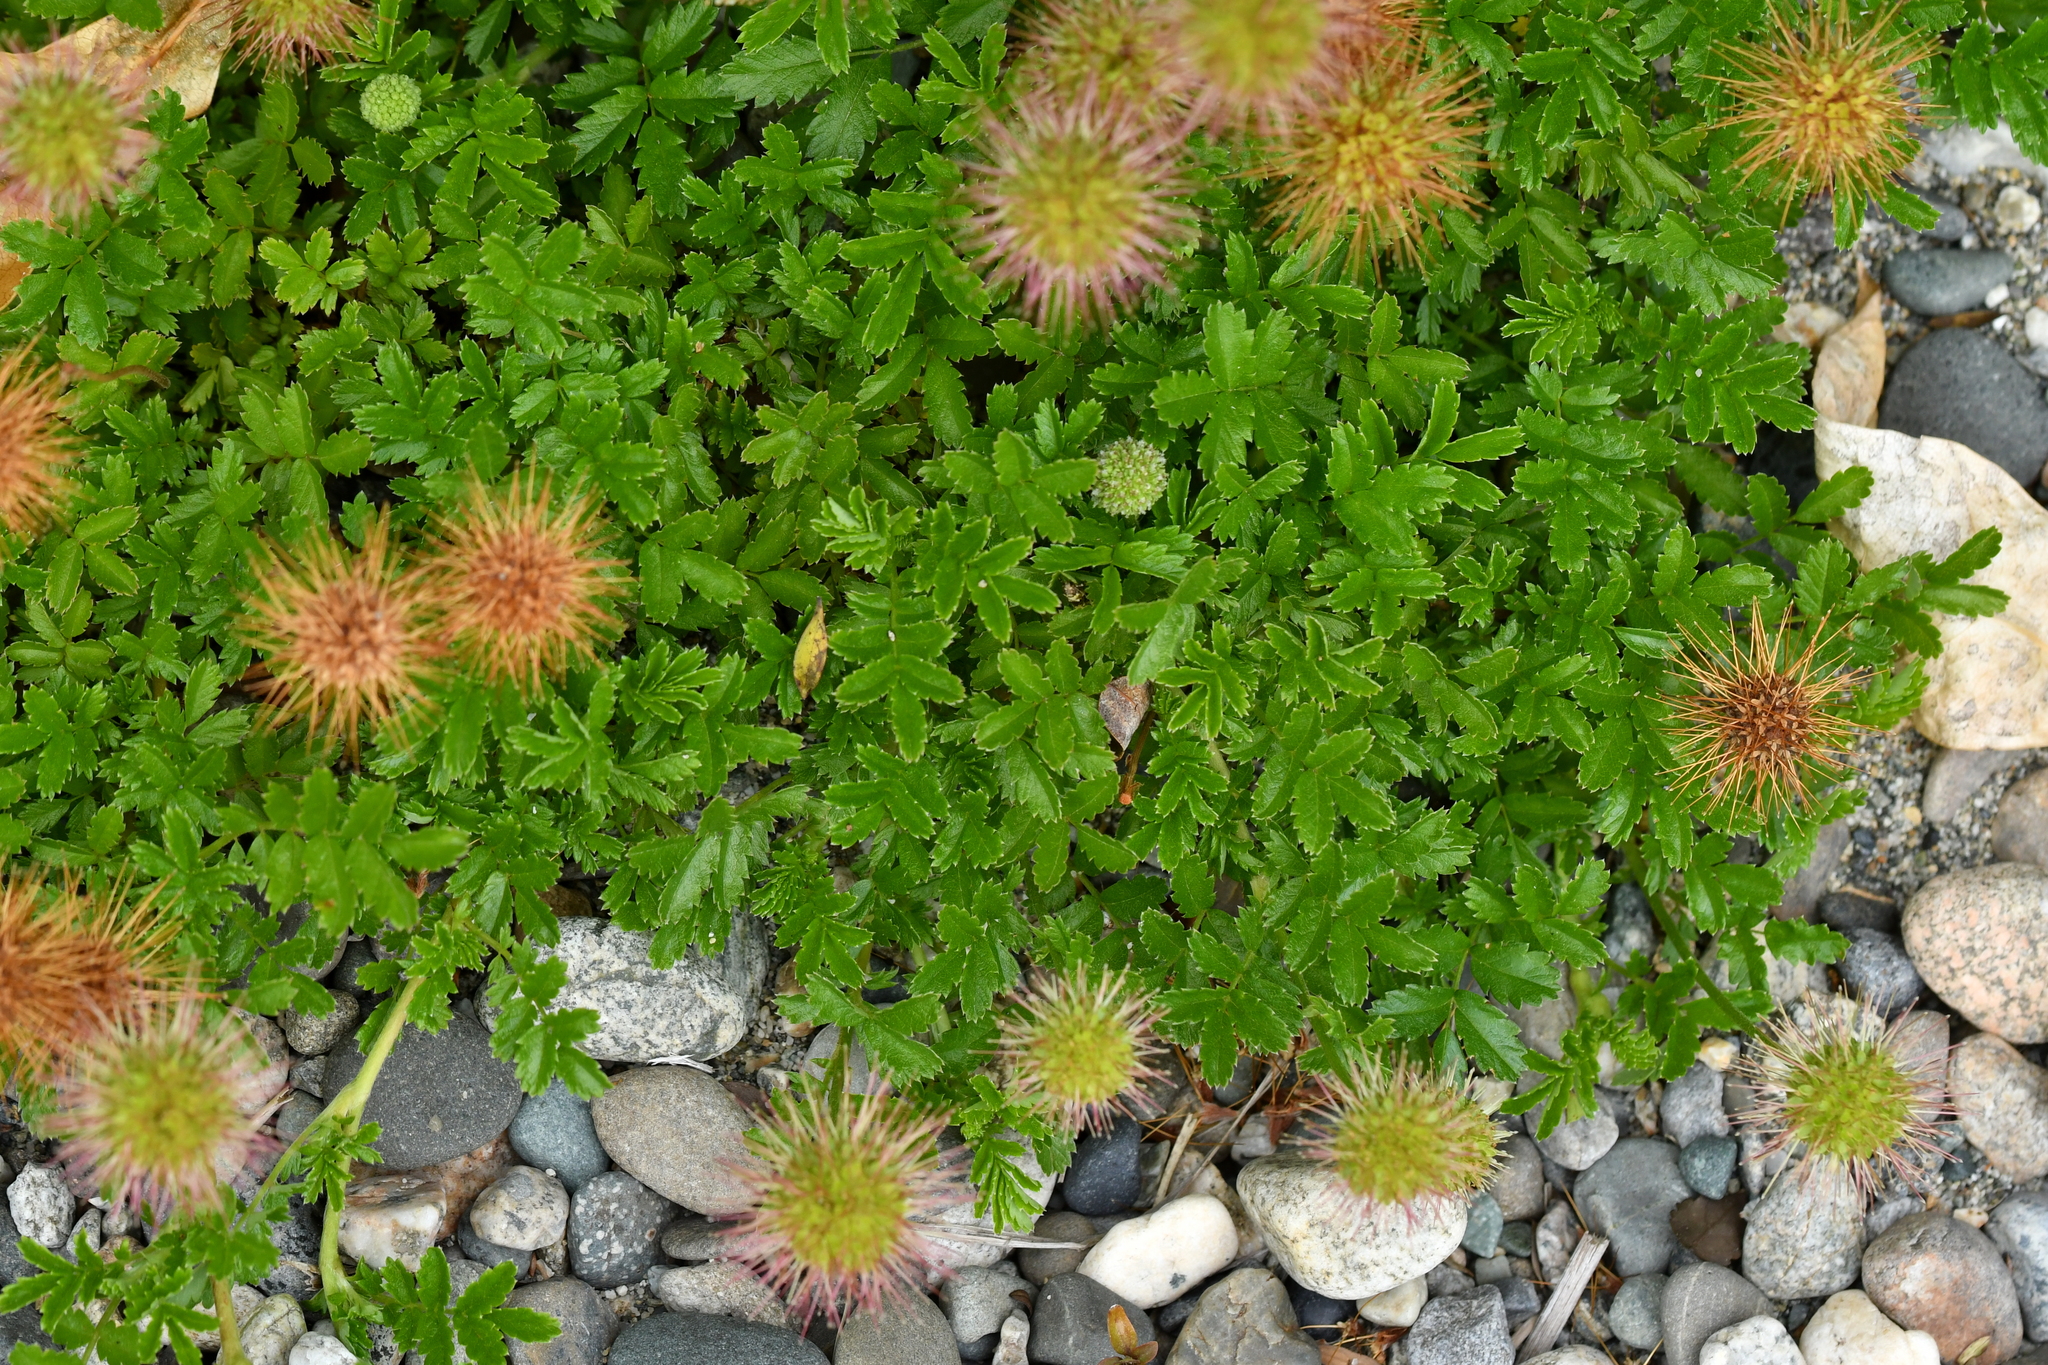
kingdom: Plantae
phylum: Tracheophyta
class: Magnoliopsida
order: Rosales
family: Rosaceae
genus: Acaena
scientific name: Acaena novae-zelandiae
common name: Pirri-pirri-bur
